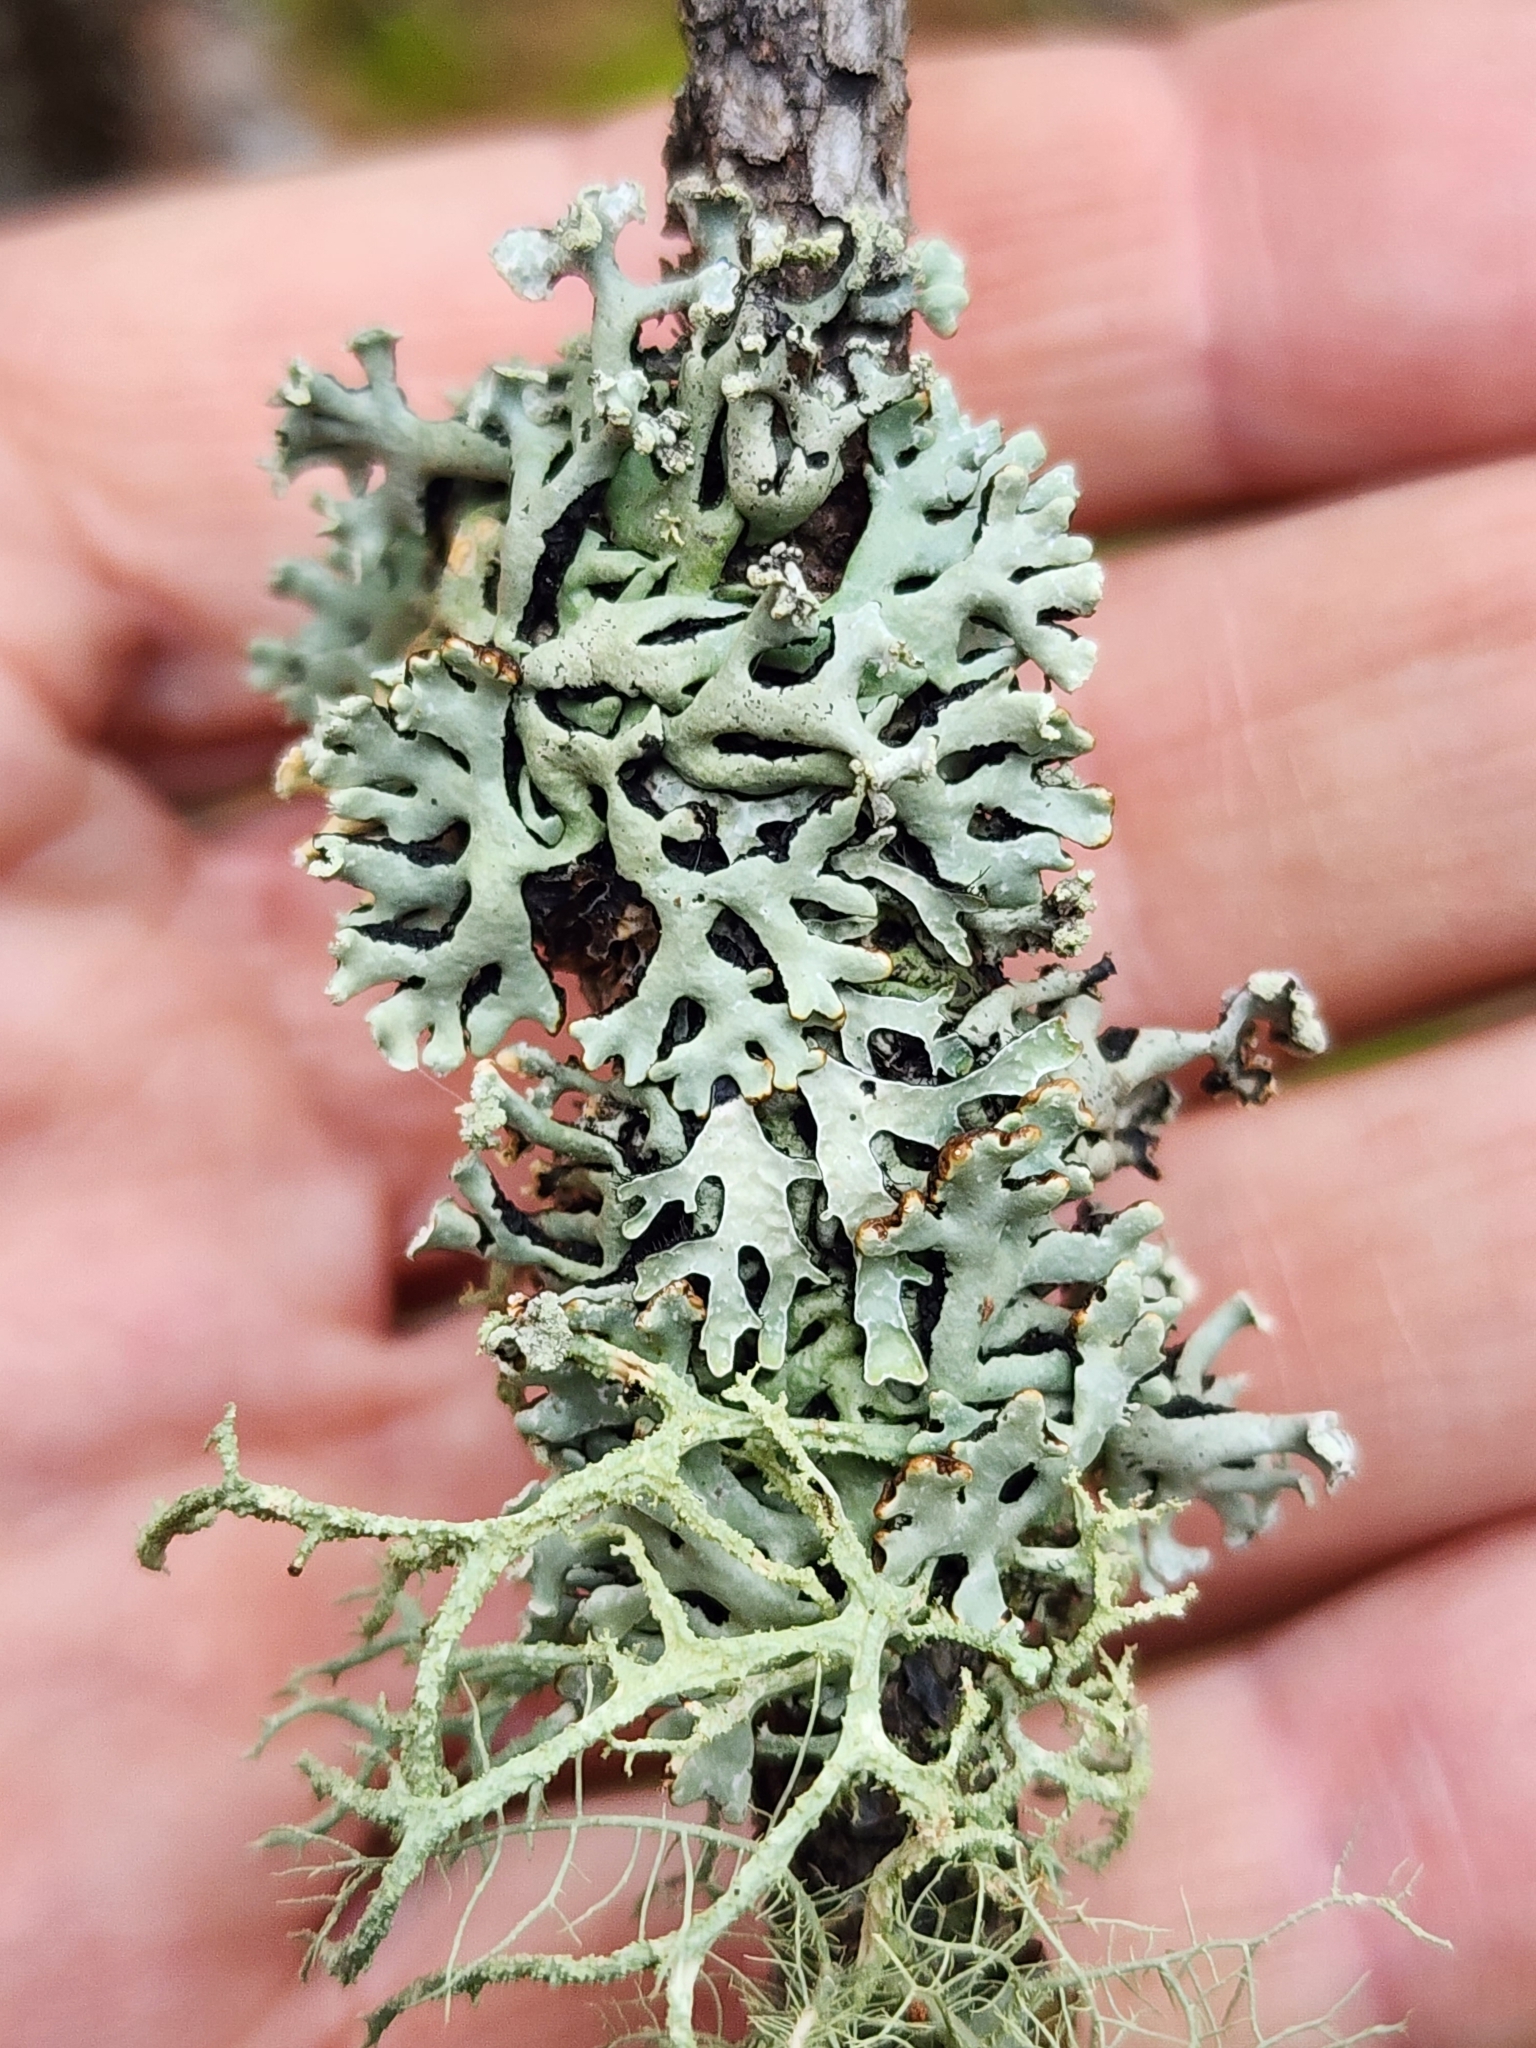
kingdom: Fungi
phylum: Ascomycota
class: Lecanoromycetes
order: Lecanorales
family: Parmeliaceae
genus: Hypogymnia
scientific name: Hypogymnia physodes
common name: Dark crottle
